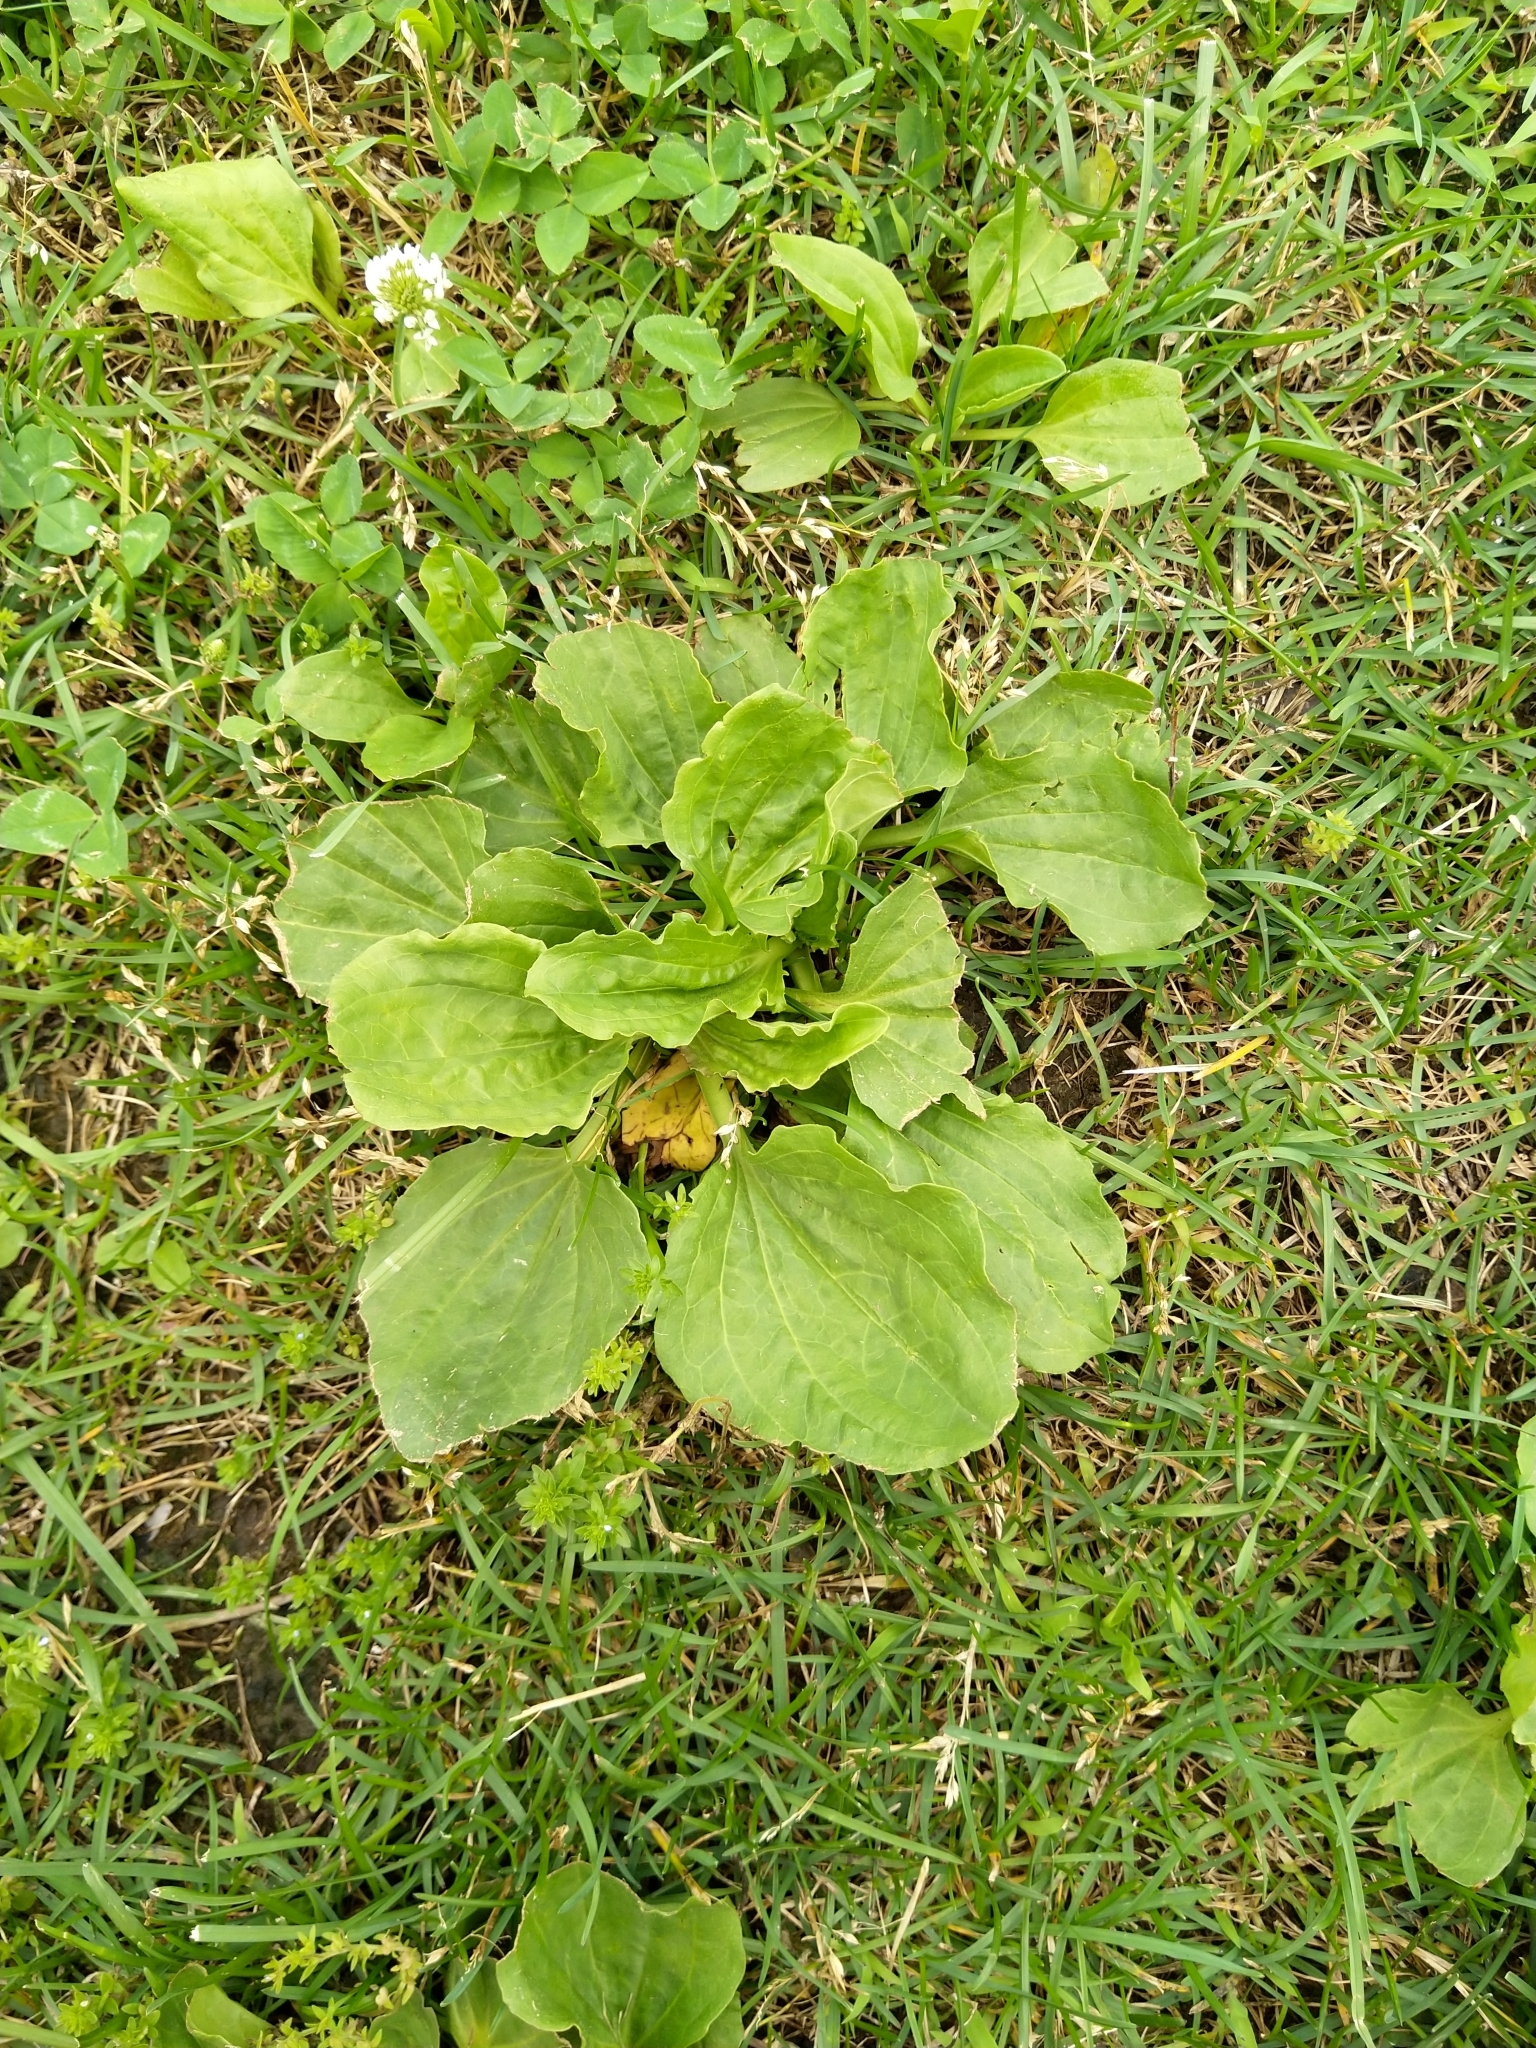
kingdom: Plantae
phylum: Tracheophyta
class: Magnoliopsida
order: Lamiales
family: Plantaginaceae
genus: Plantago
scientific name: Plantago major
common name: Common plantain
